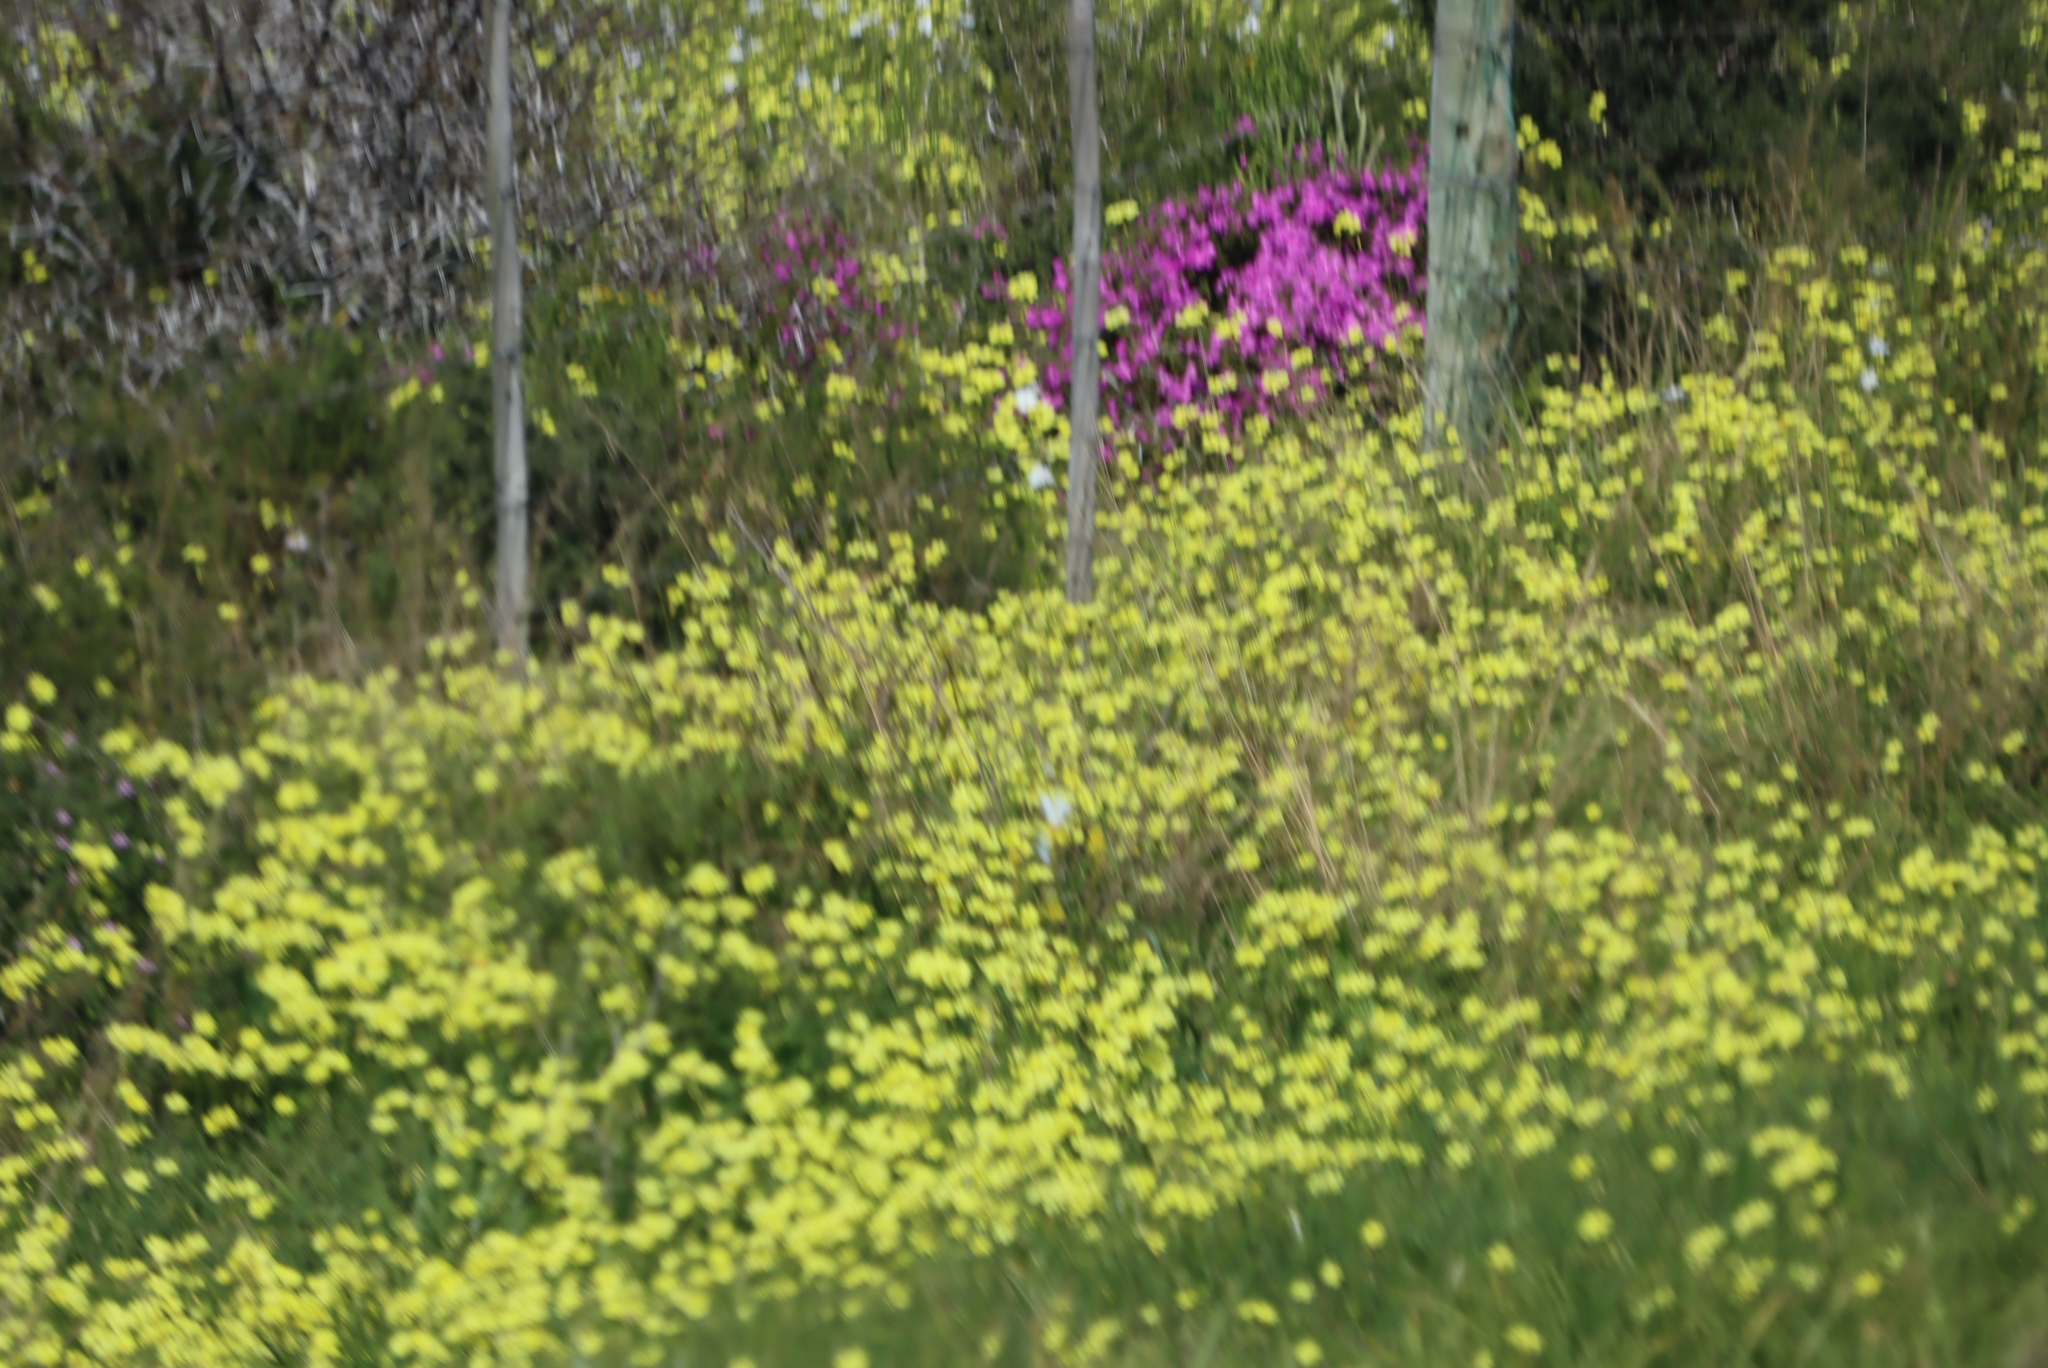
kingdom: Plantae
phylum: Tracheophyta
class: Magnoliopsida
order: Oxalidales
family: Oxalidaceae
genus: Oxalis
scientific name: Oxalis pes-caprae
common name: Bermuda-buttercup
